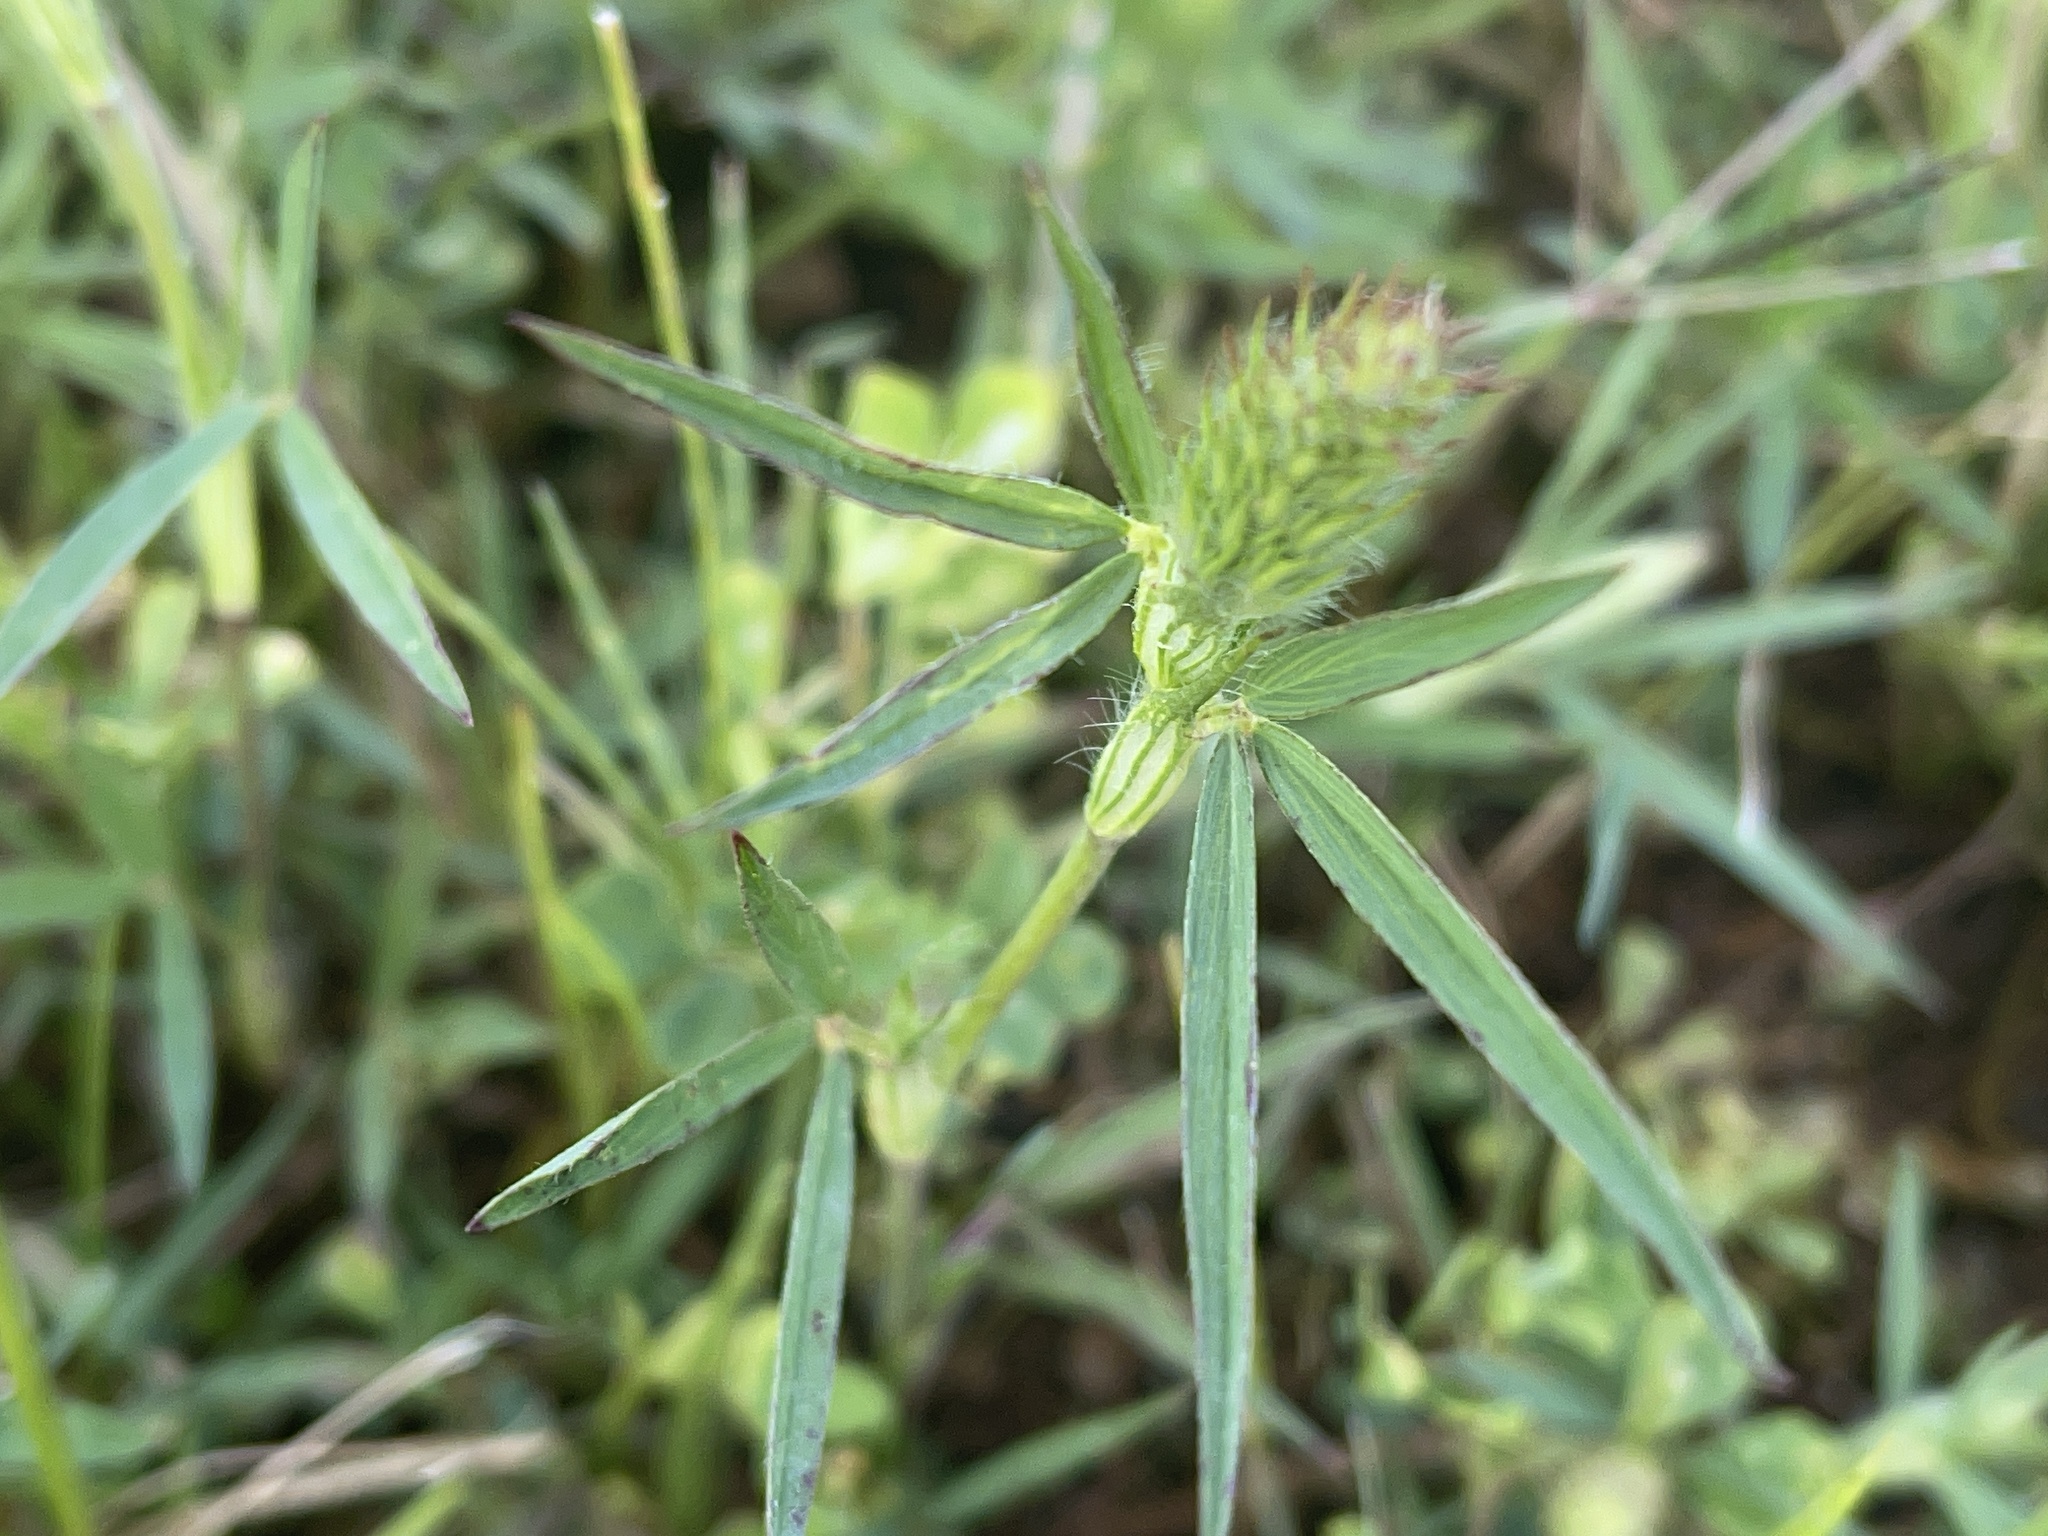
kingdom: Plantae
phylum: Tracheophyta
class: Magnoliopsida
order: Fabales
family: Fabaceae
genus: Trifolium
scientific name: Trifolium angustifolium
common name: Narrow clover
